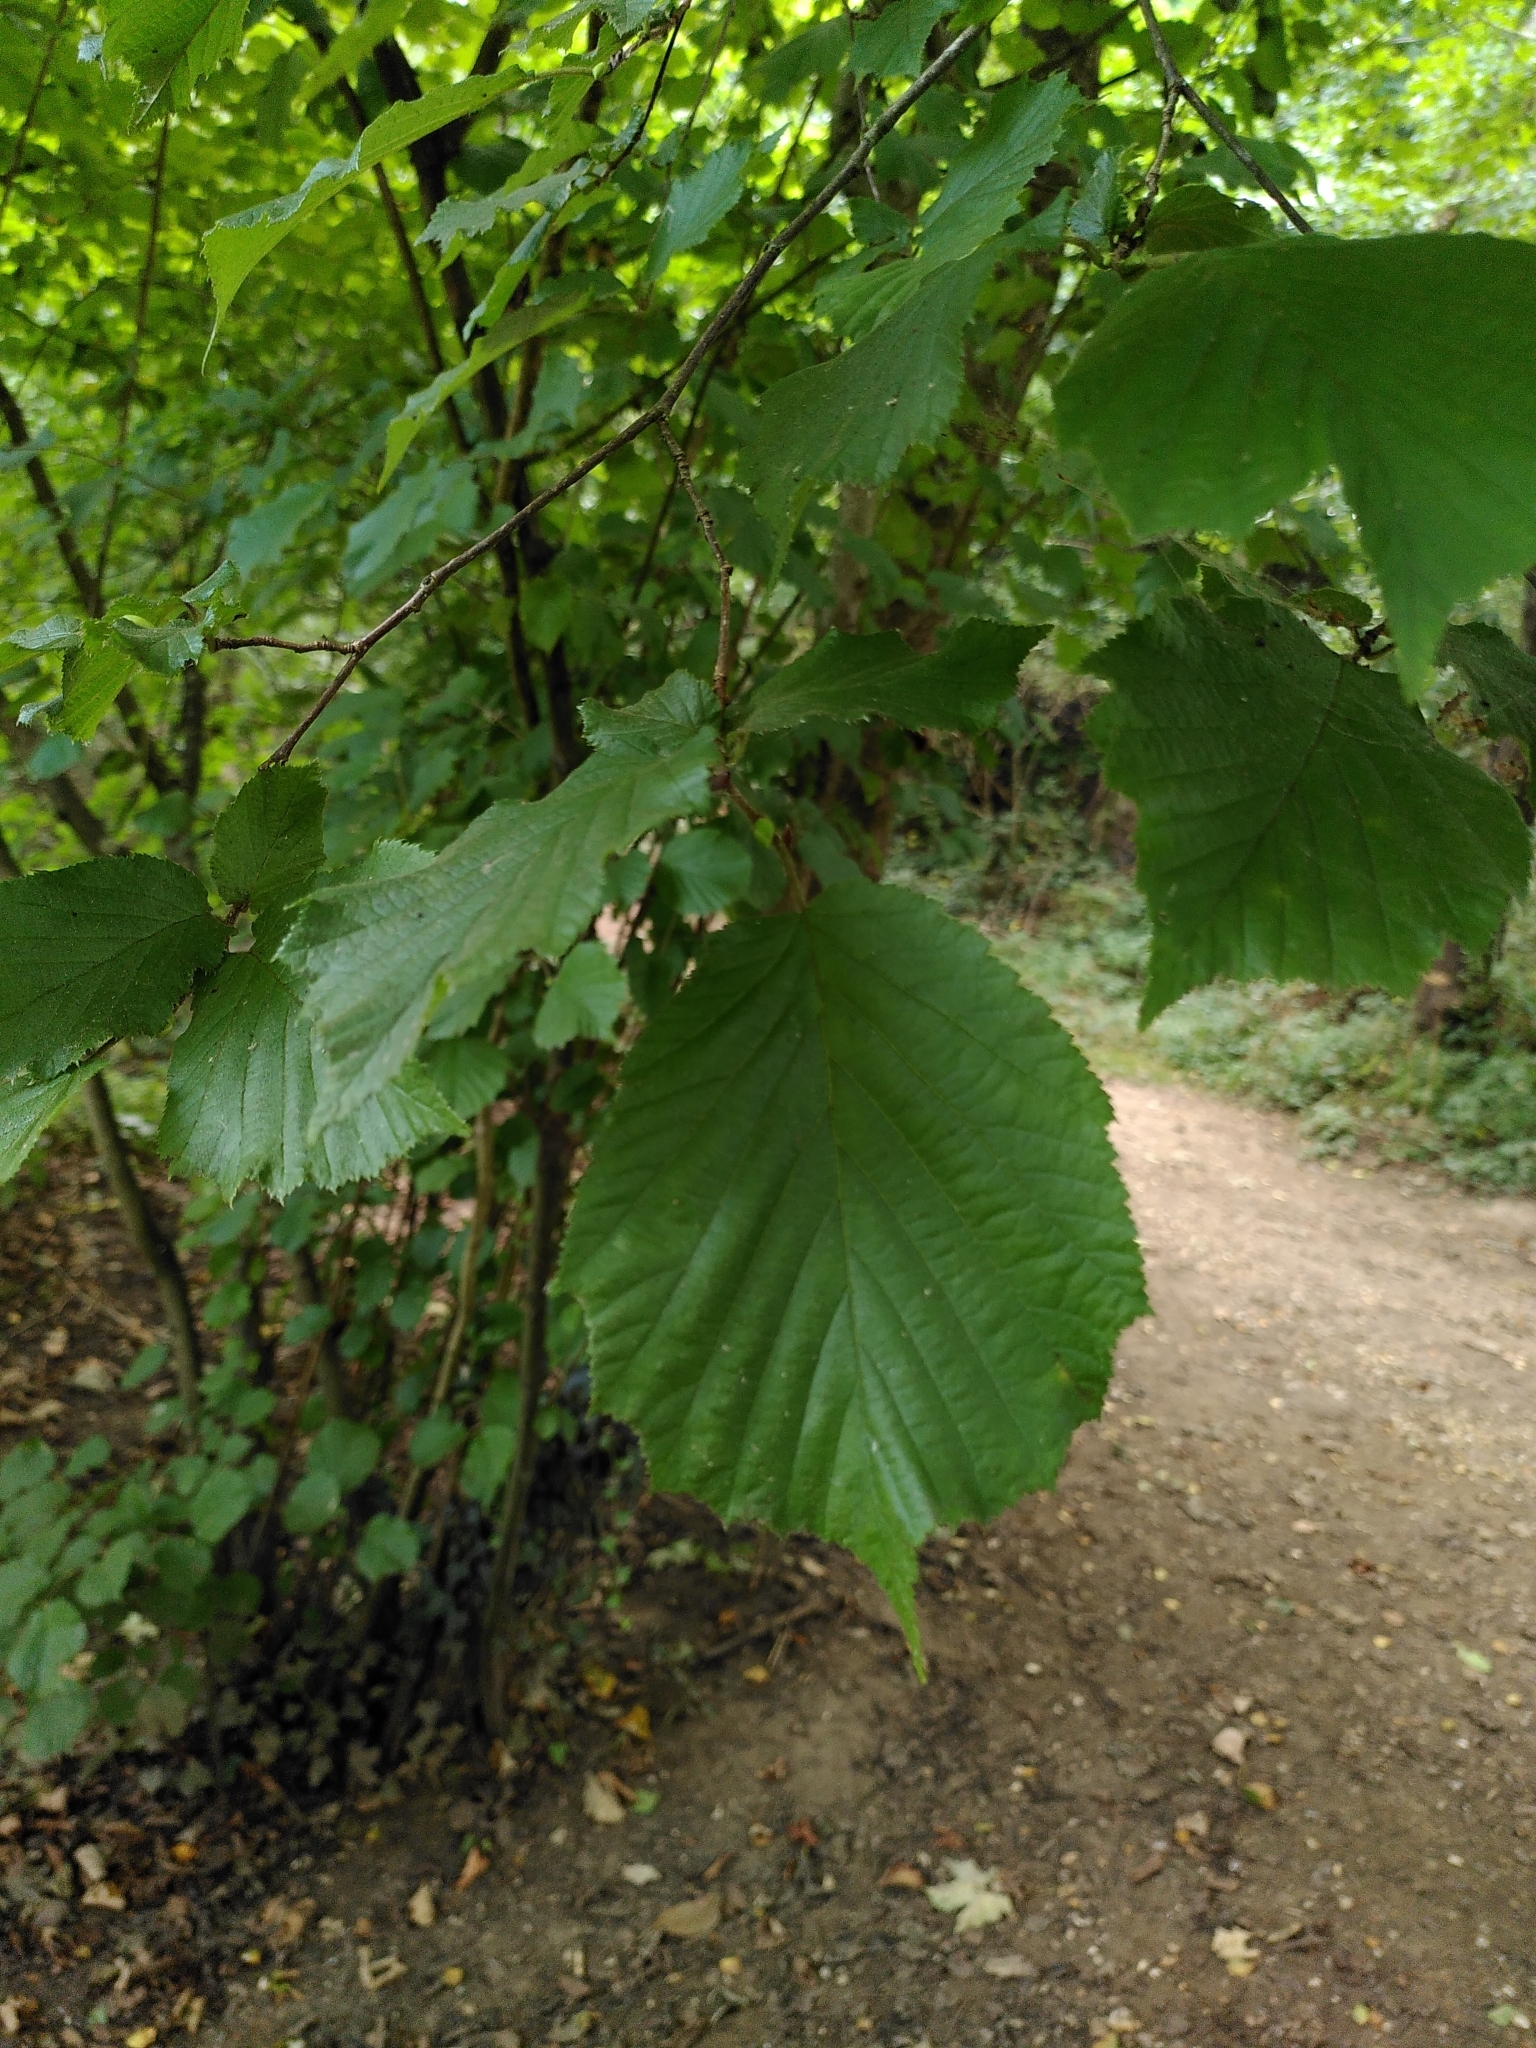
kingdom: Plantae
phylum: Tracheophyta
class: Magnoliopsida
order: Fagales
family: Betulaceae
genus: Corylus
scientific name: Corylus avellana
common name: European hazel
